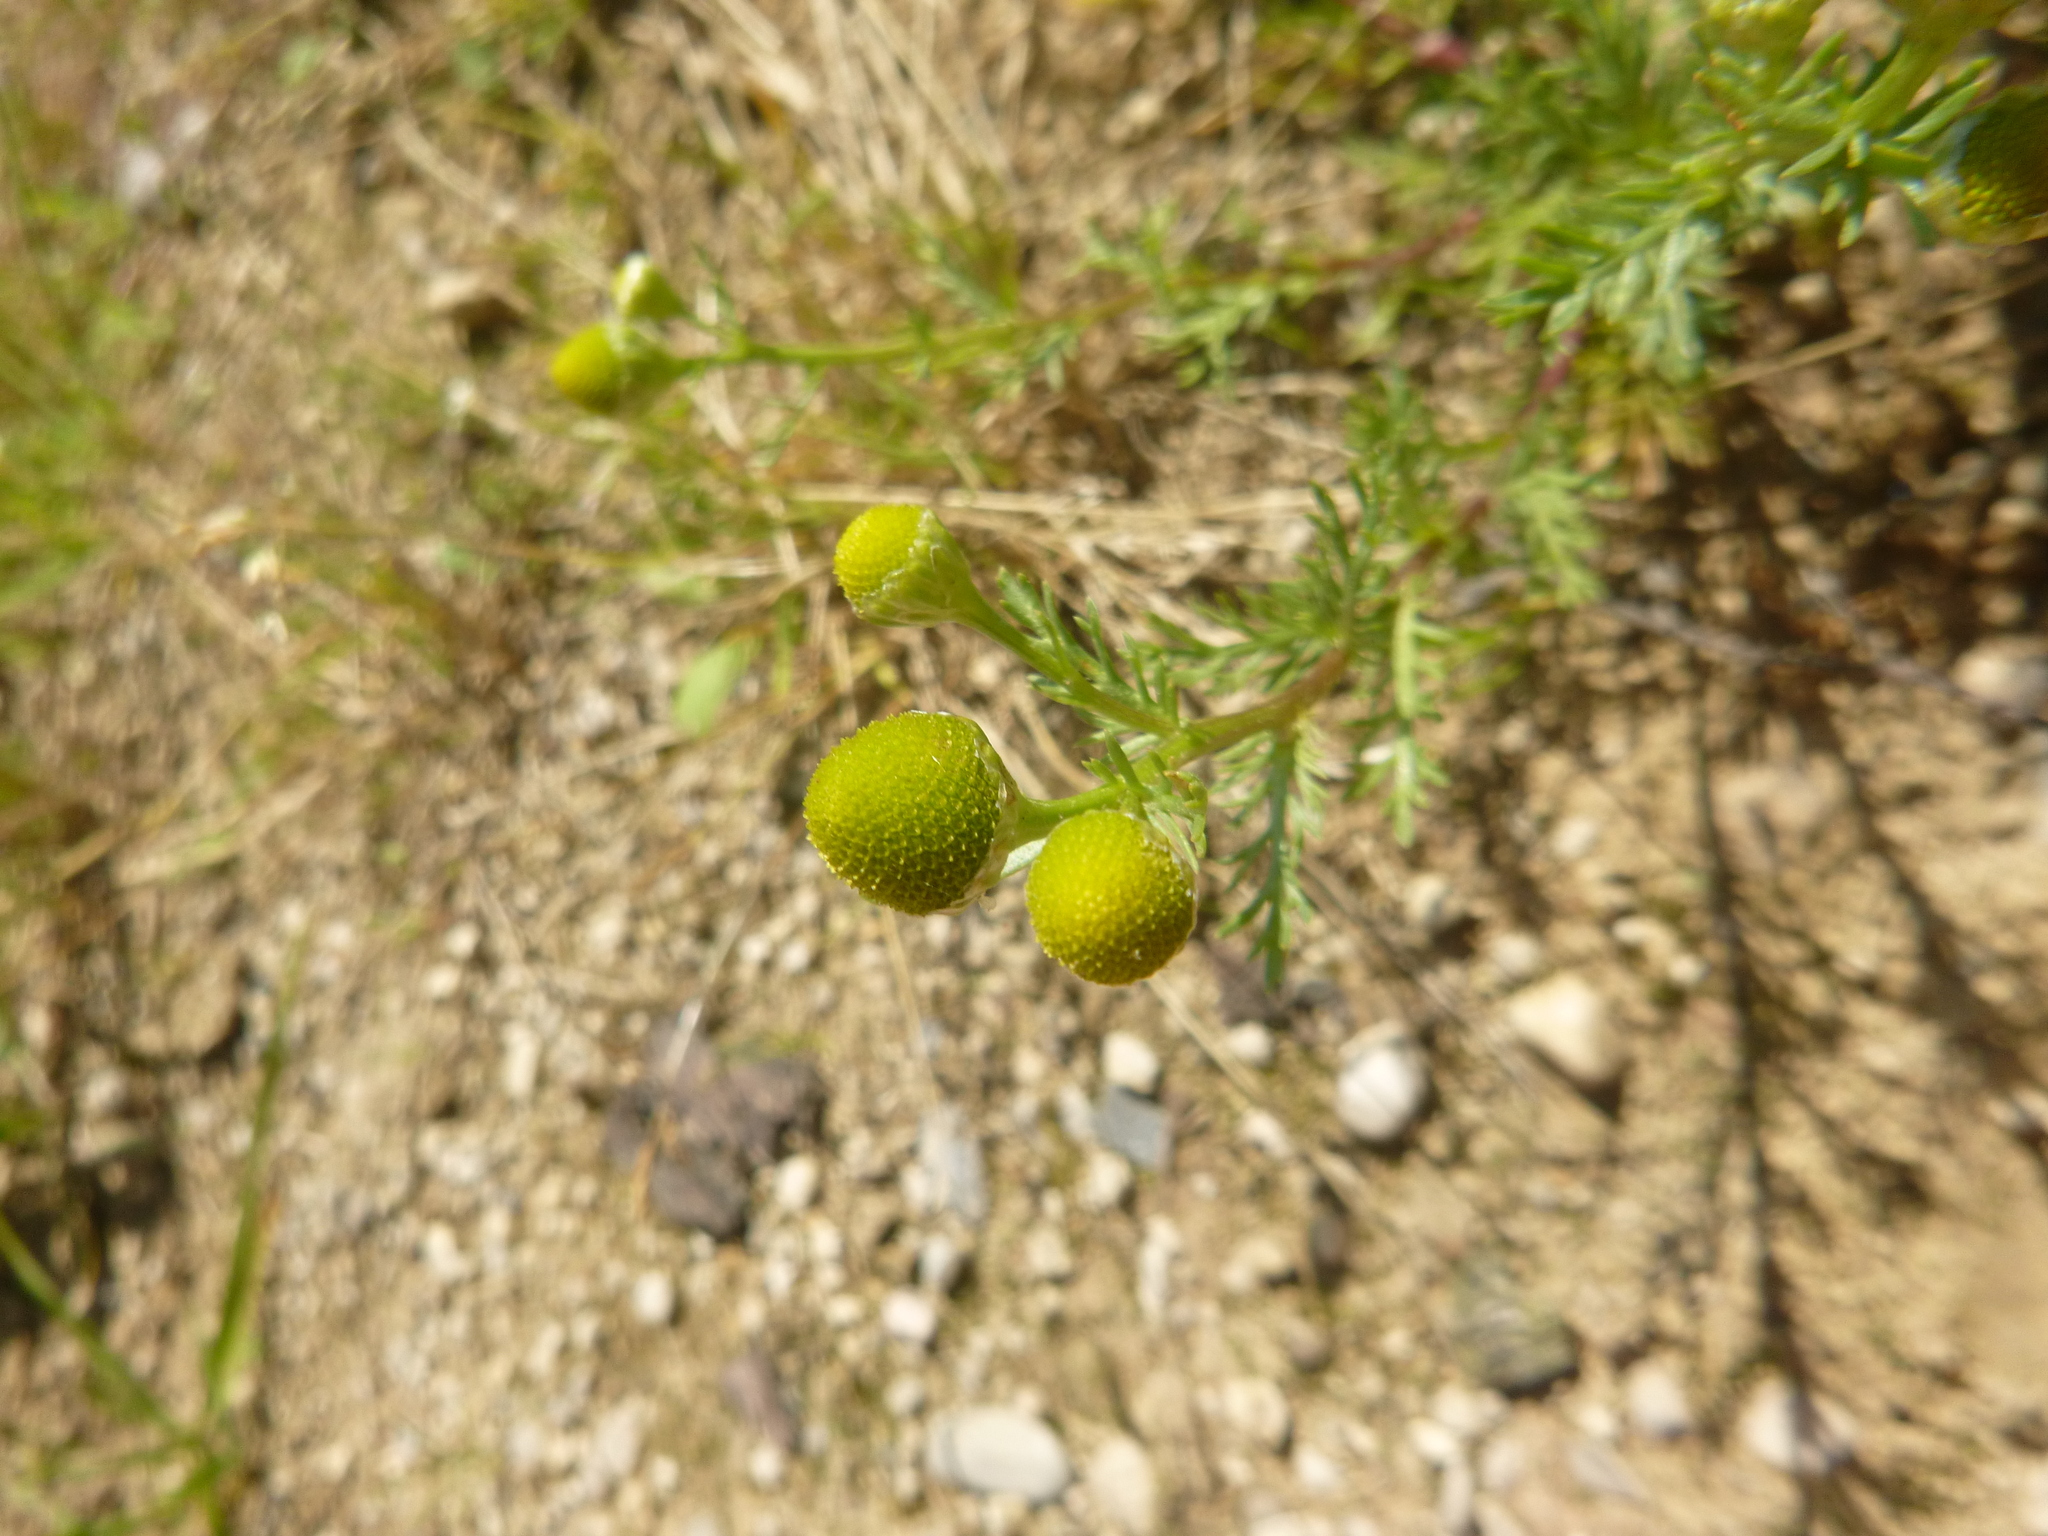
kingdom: Plantae
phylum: Tracheophyta
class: Magnoliopsida
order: Asterales
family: Asteraceae
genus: Matricaria
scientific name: Matricaria discoidea
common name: Disc mayweed
